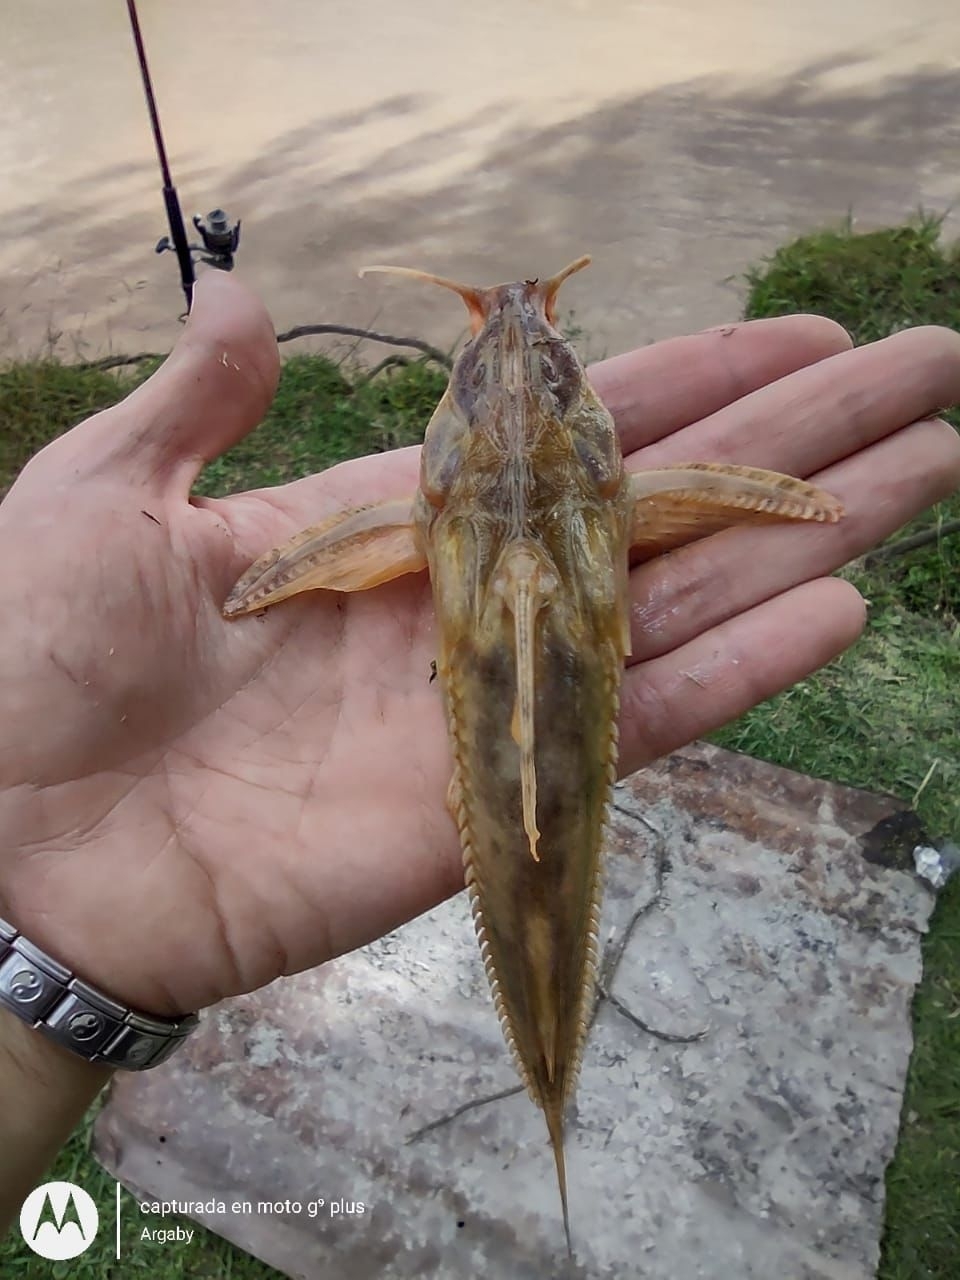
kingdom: Animalia
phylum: Chordata
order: Siluriformes
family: Doradidae
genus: Rhinodoras
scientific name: Rhinodoras dorbignyi
